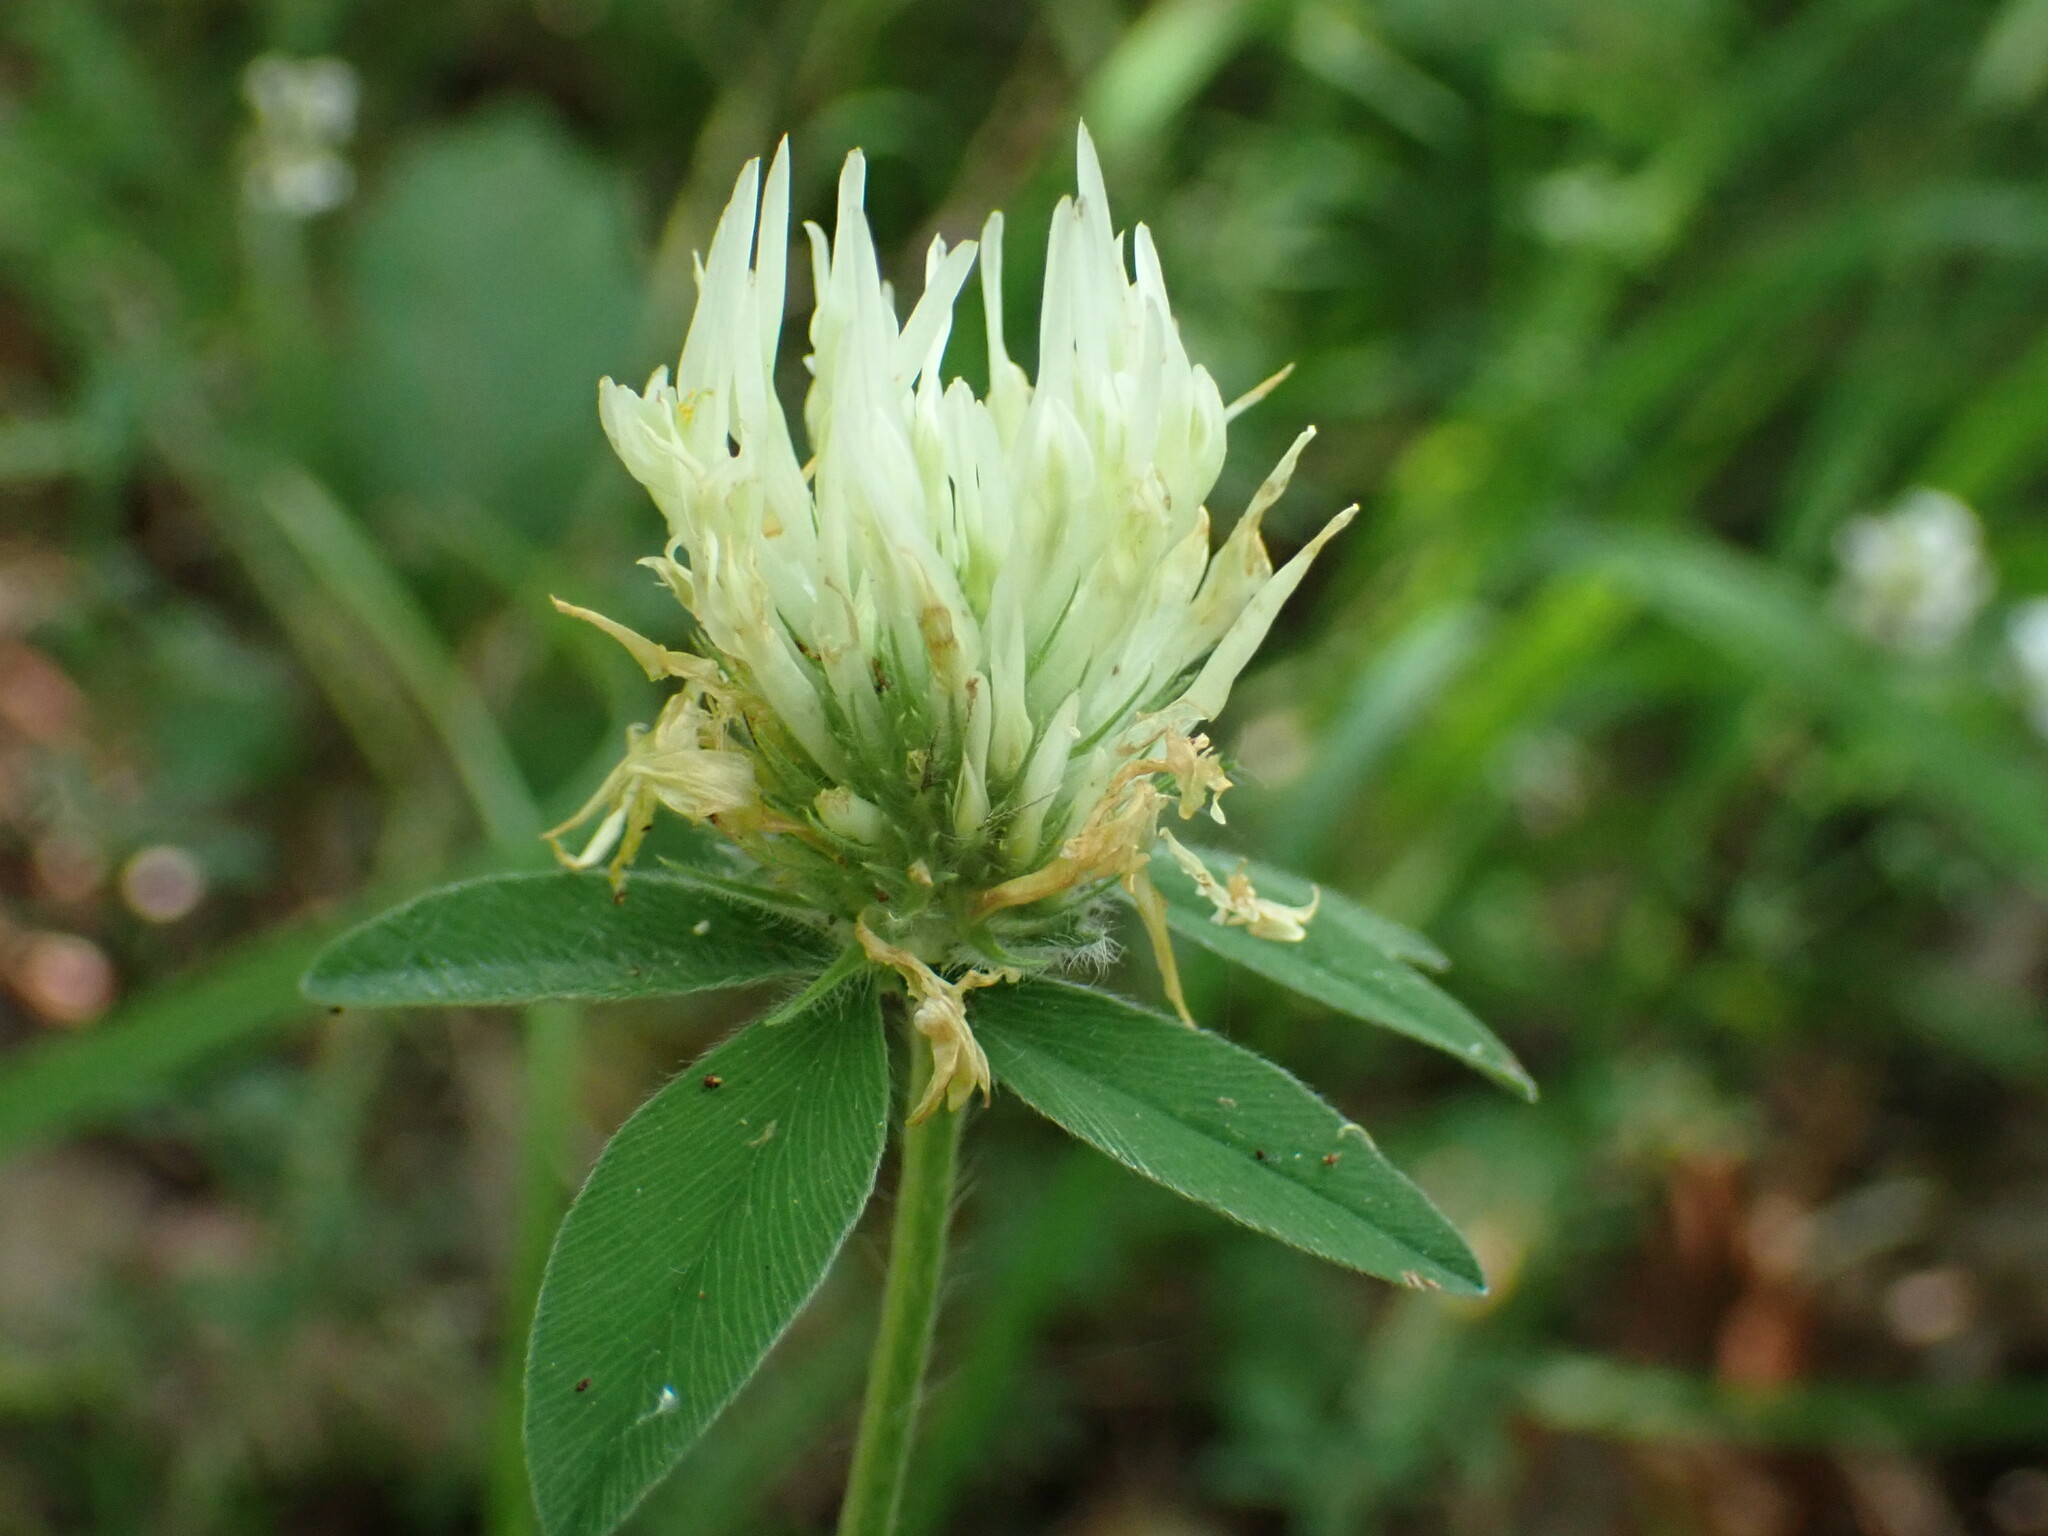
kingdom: Plantae
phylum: Tracheophyta
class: Magnoliopsida
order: Fabales
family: Fabaceae
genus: Trifolium
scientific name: Trifolium ochroleucon
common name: Sulphur clover
